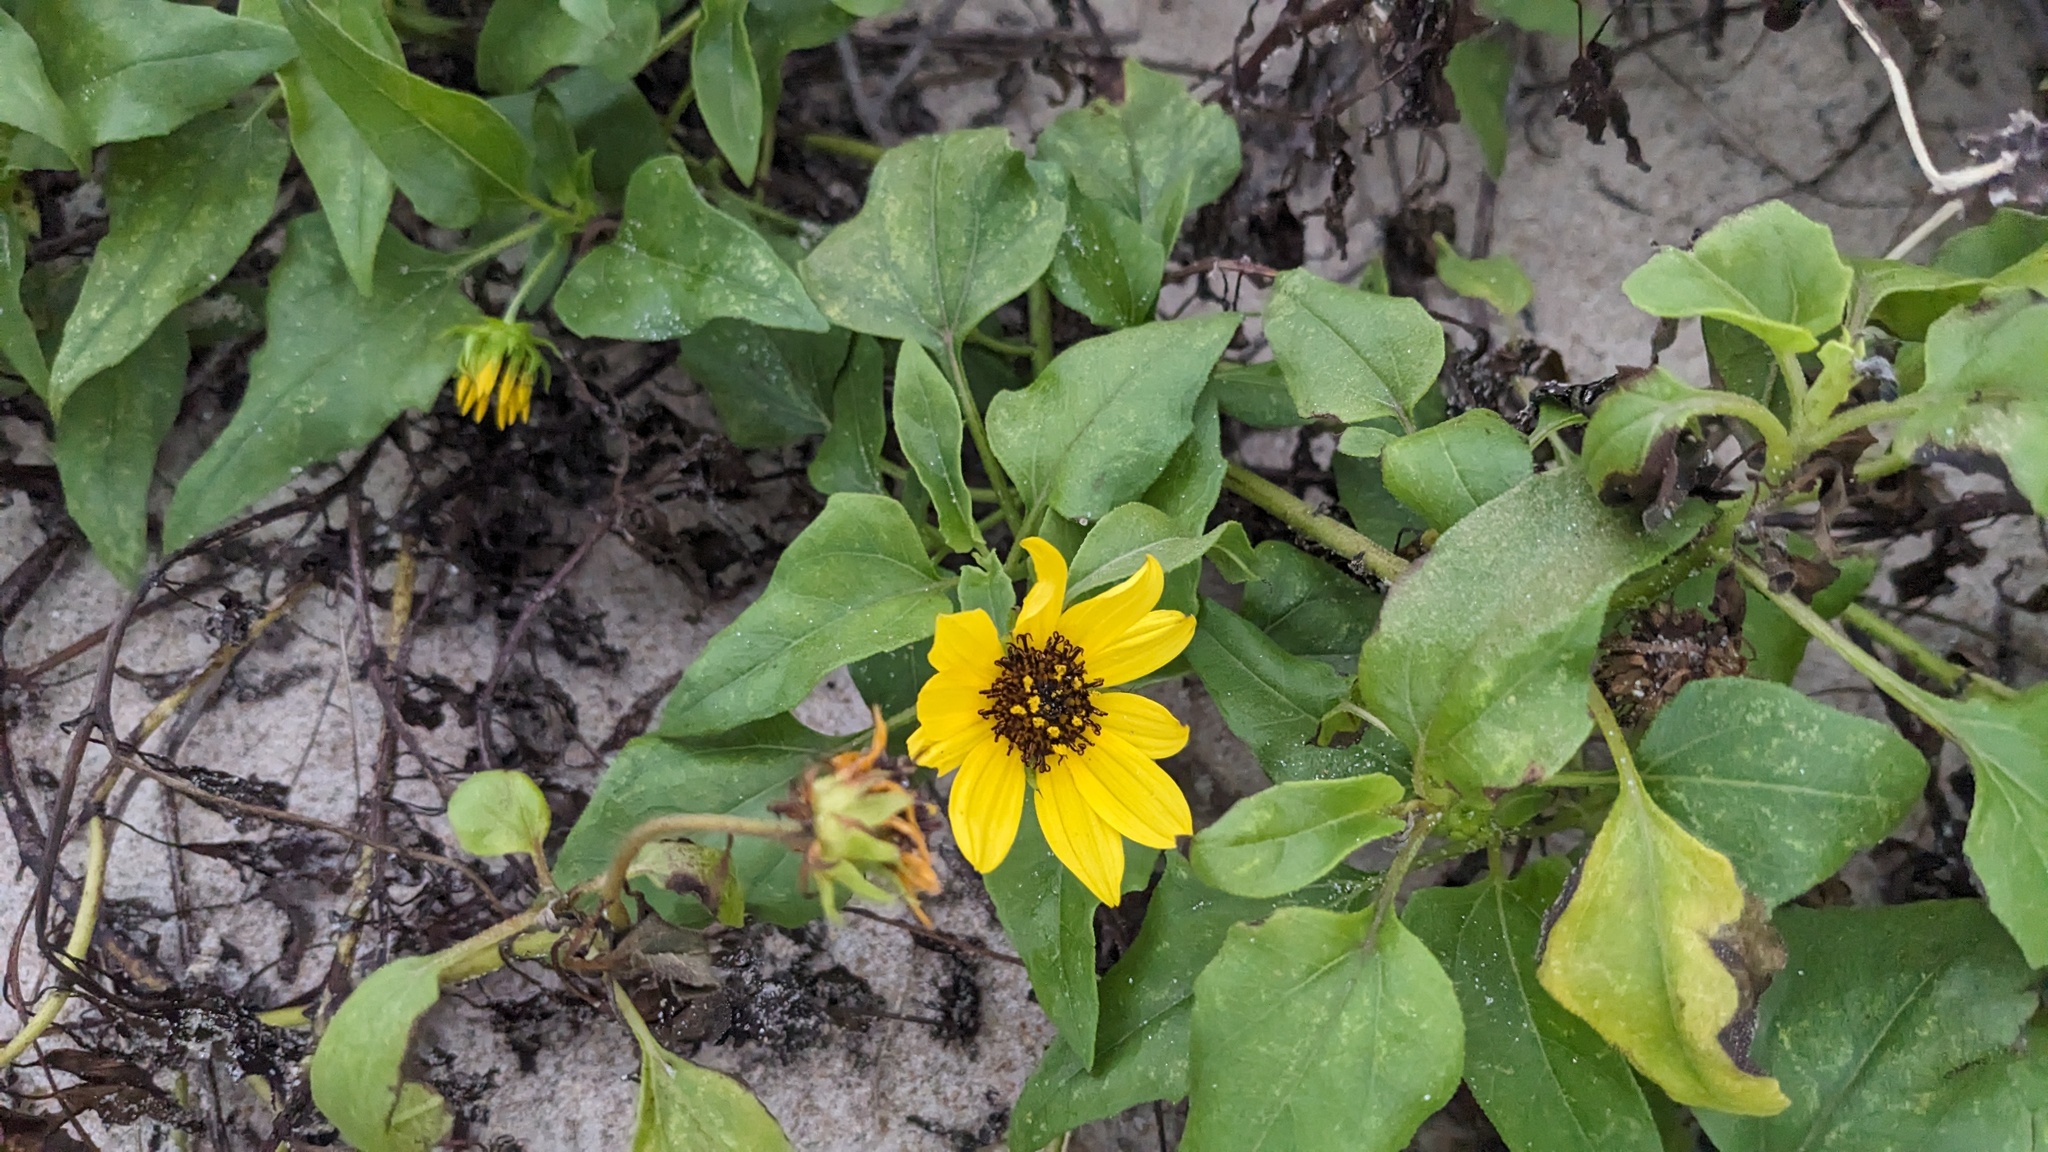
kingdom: Plantae
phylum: Tracheophyta
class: Magnoliopsida
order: Asterales
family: Asteraceae
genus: Helianthus
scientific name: Helianthus debilis
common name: Weak sunflower
